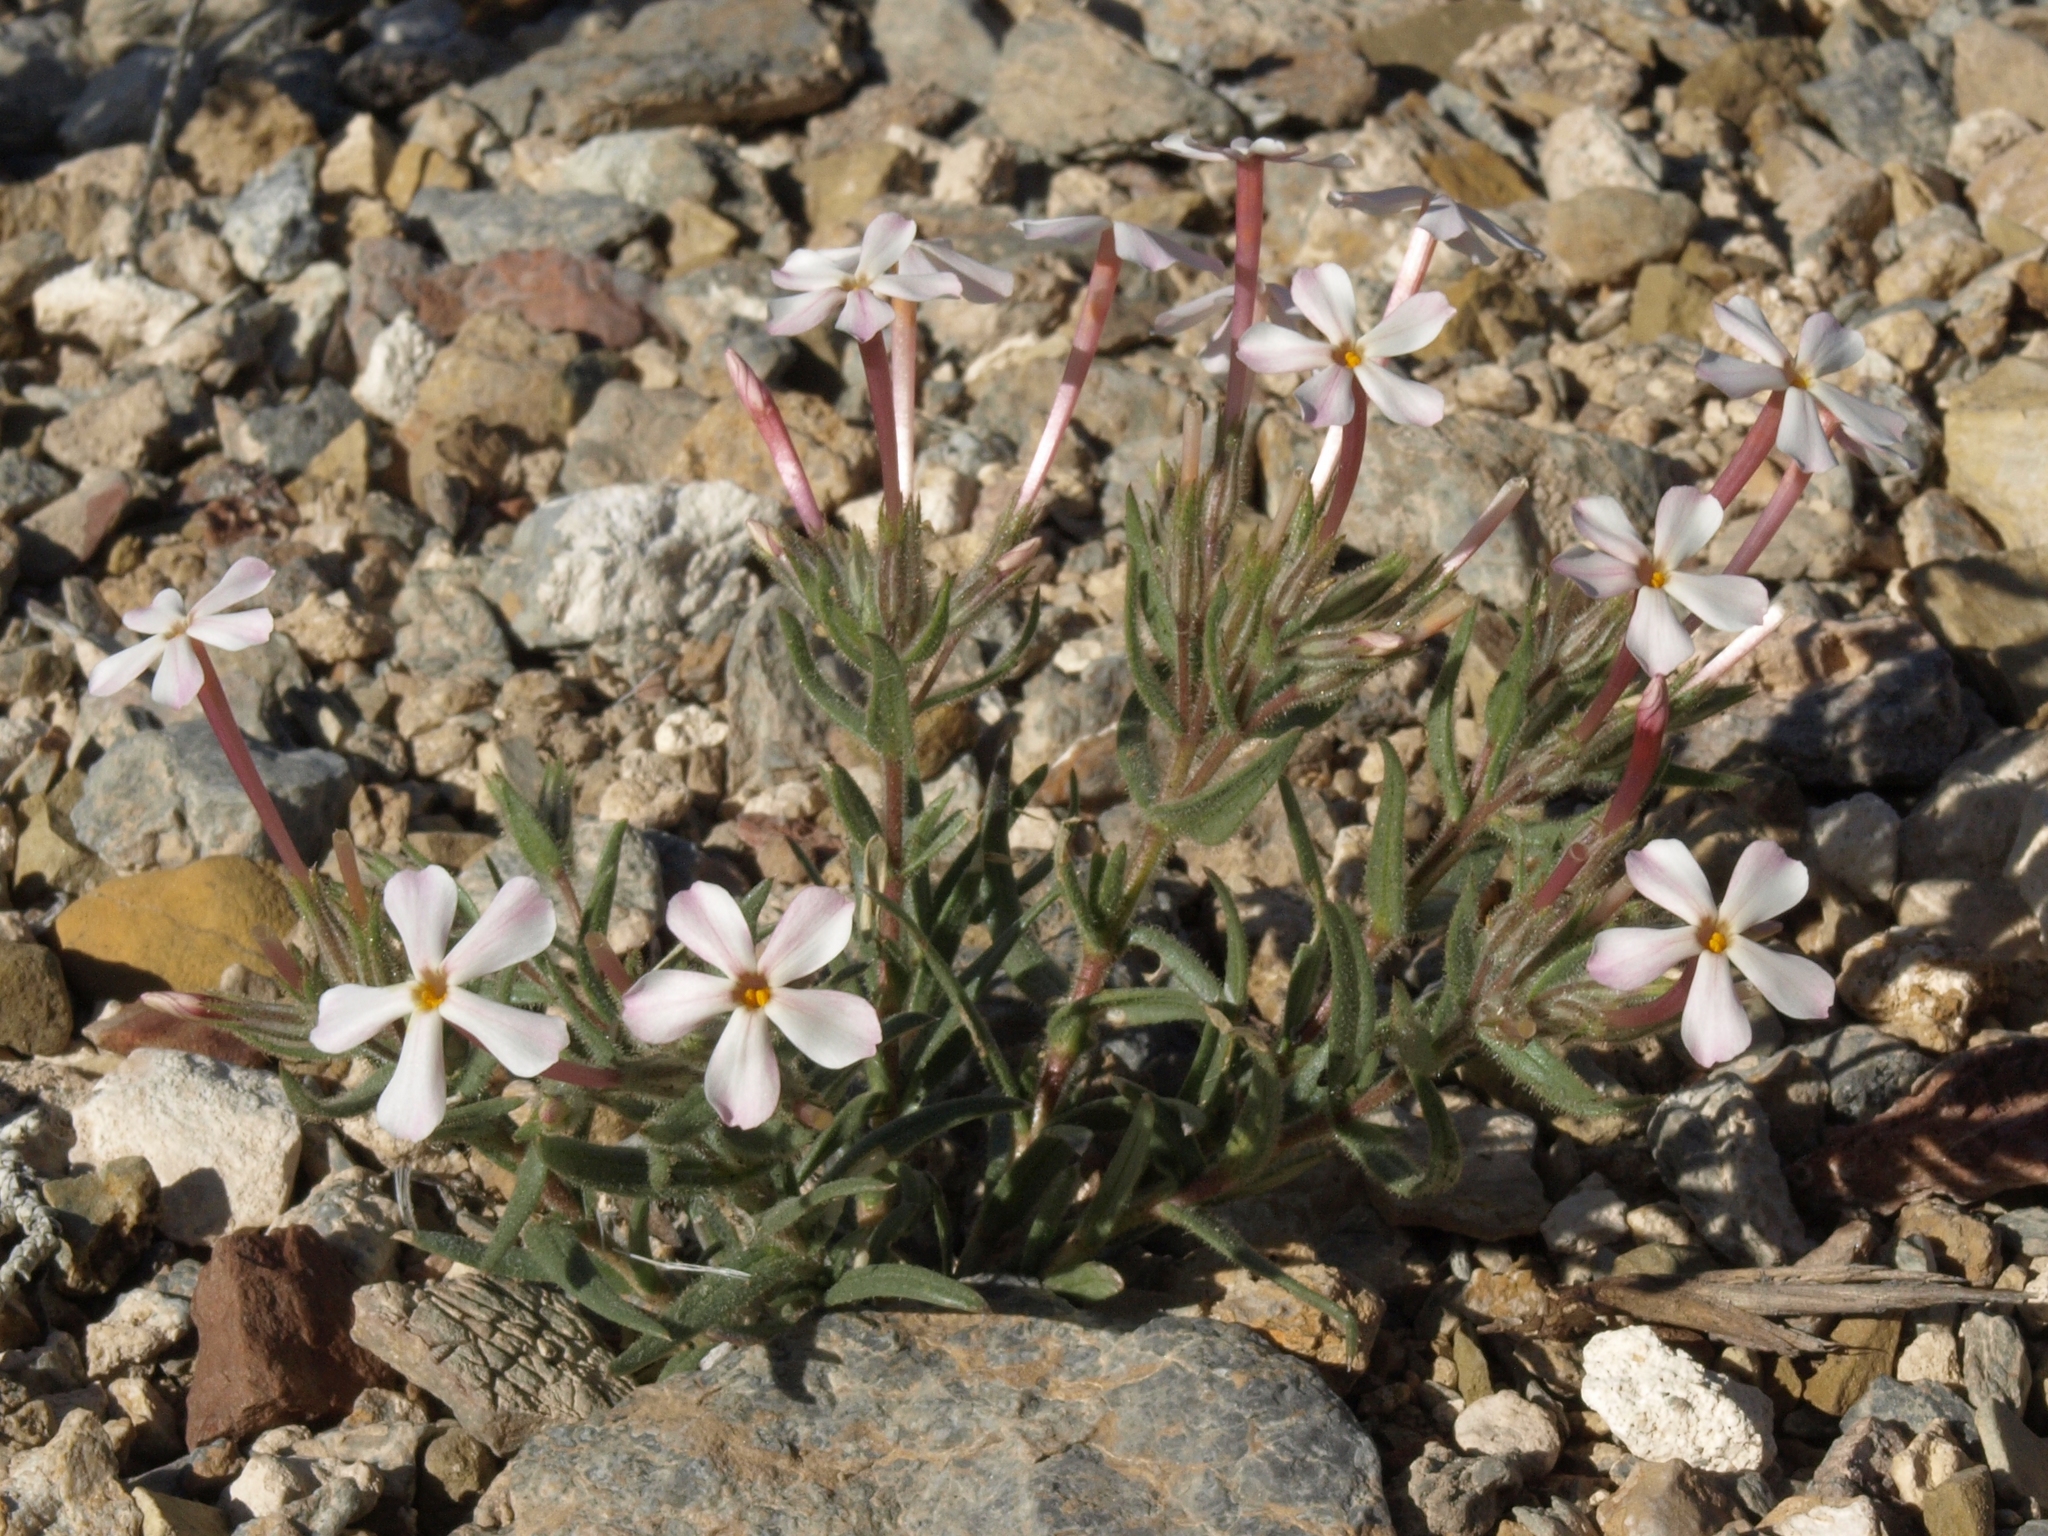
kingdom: Plantae
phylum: Tracheophyta
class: Magnoliopsida
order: Ericales
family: Polemoniaceae
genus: Phlox
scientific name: Phlox longifolia
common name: Longleaf phlox
